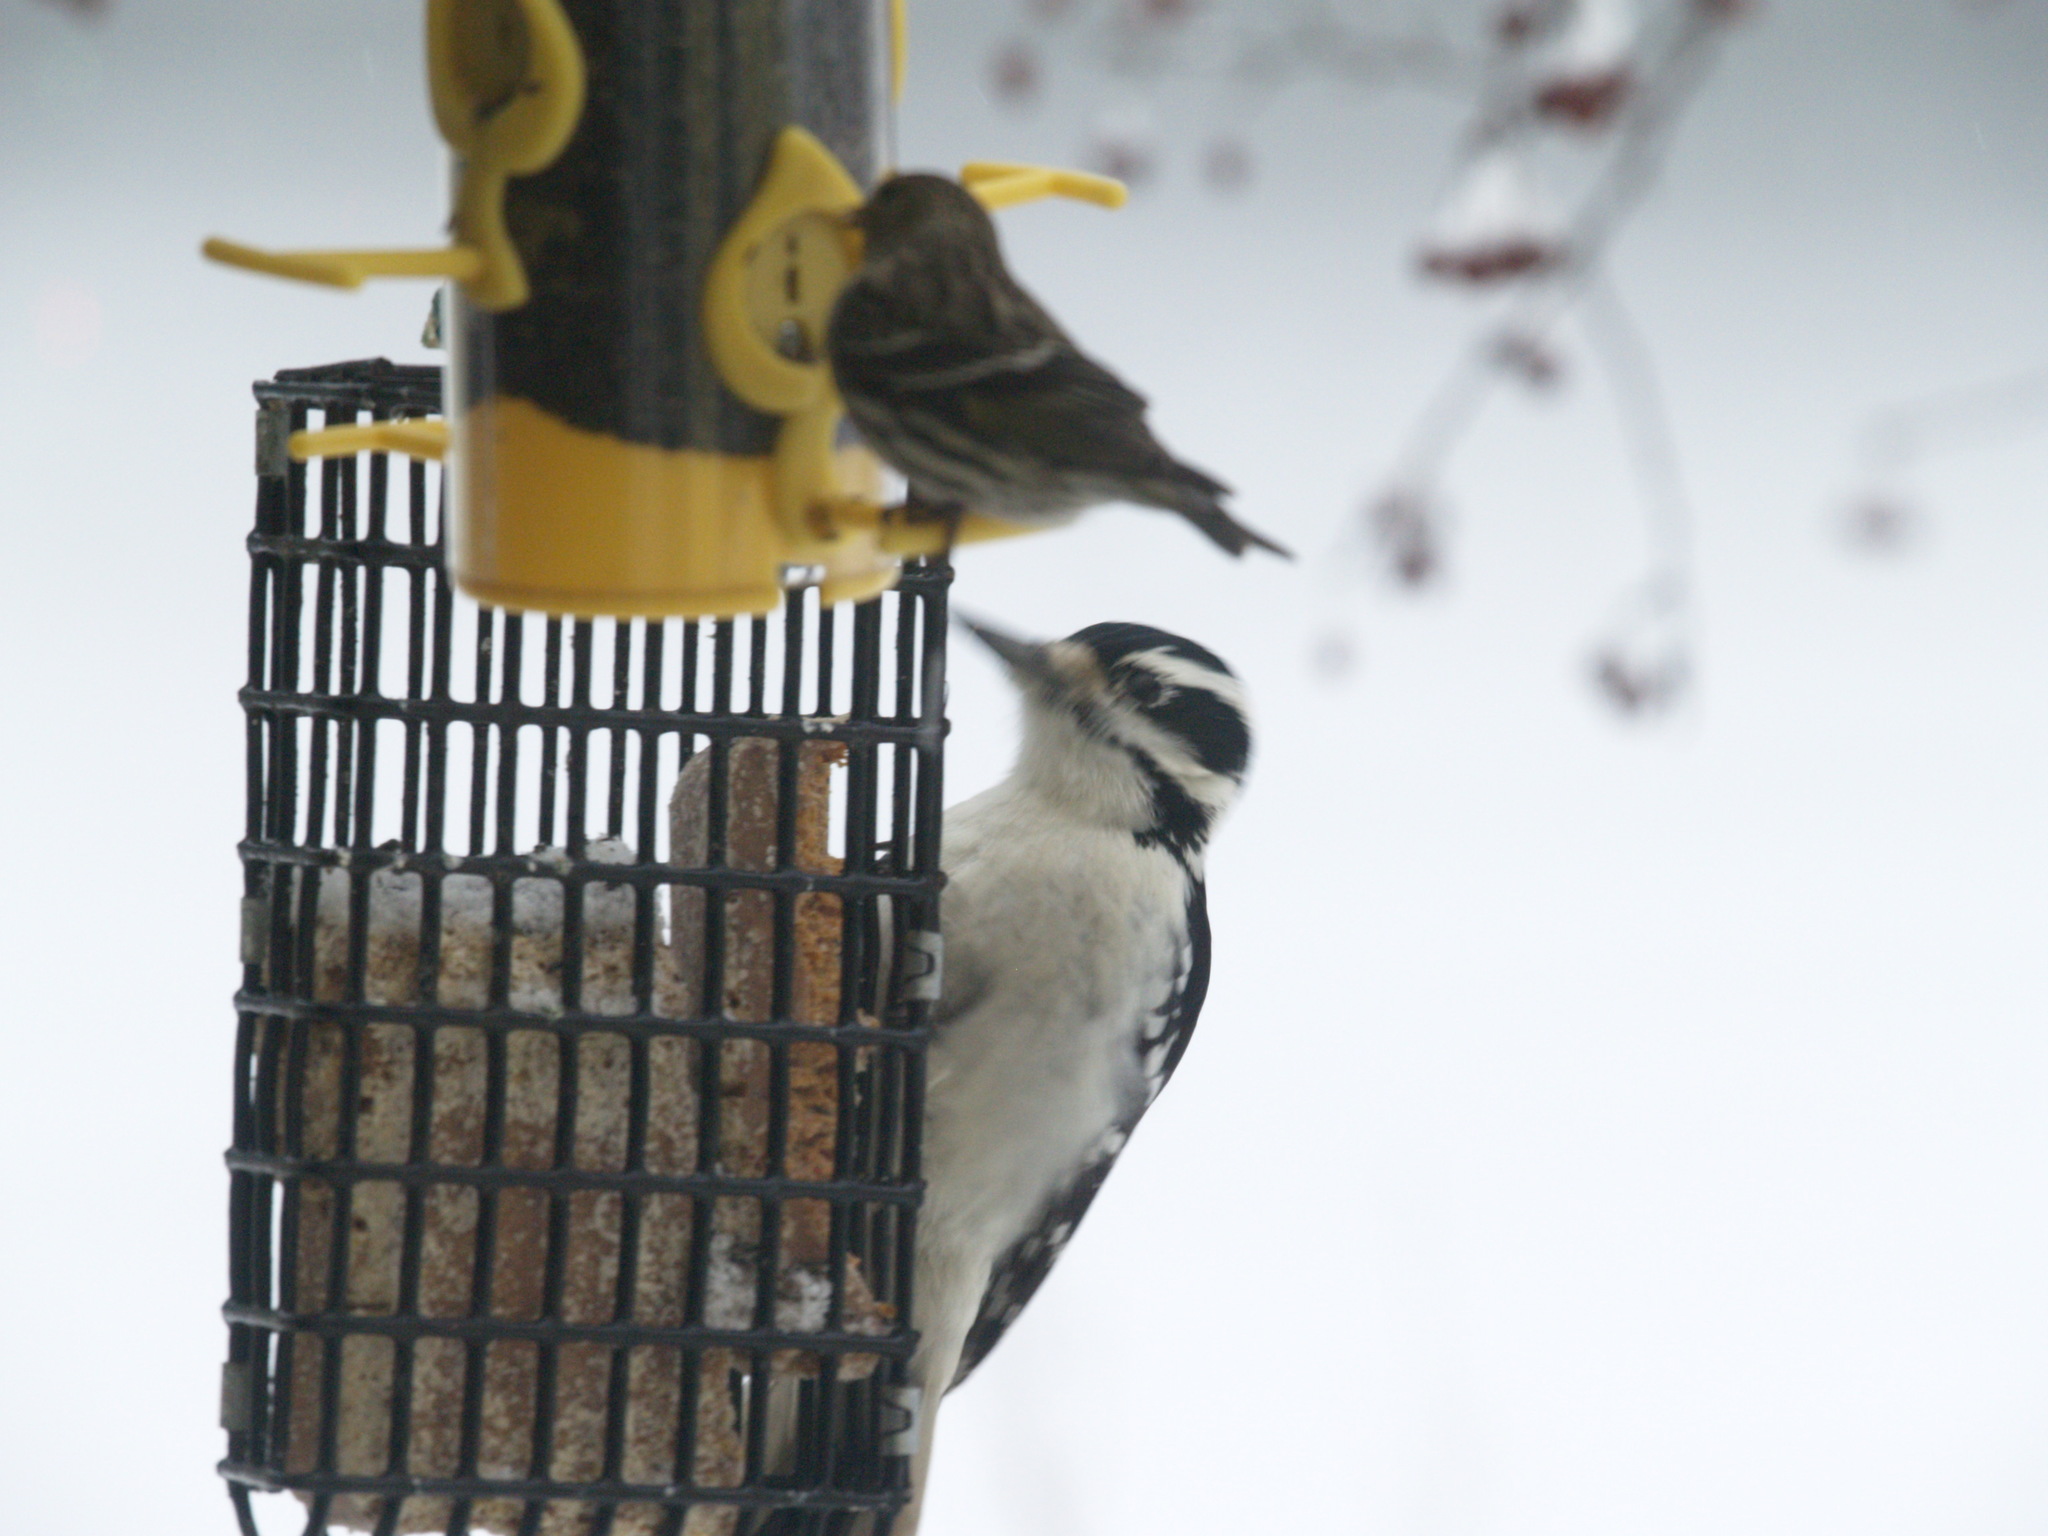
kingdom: Animalia
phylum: Chordata
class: Aves
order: Piciformes
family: Picidae
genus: Dryobates
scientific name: Dryobates pubescens
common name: Downy woodpecker
